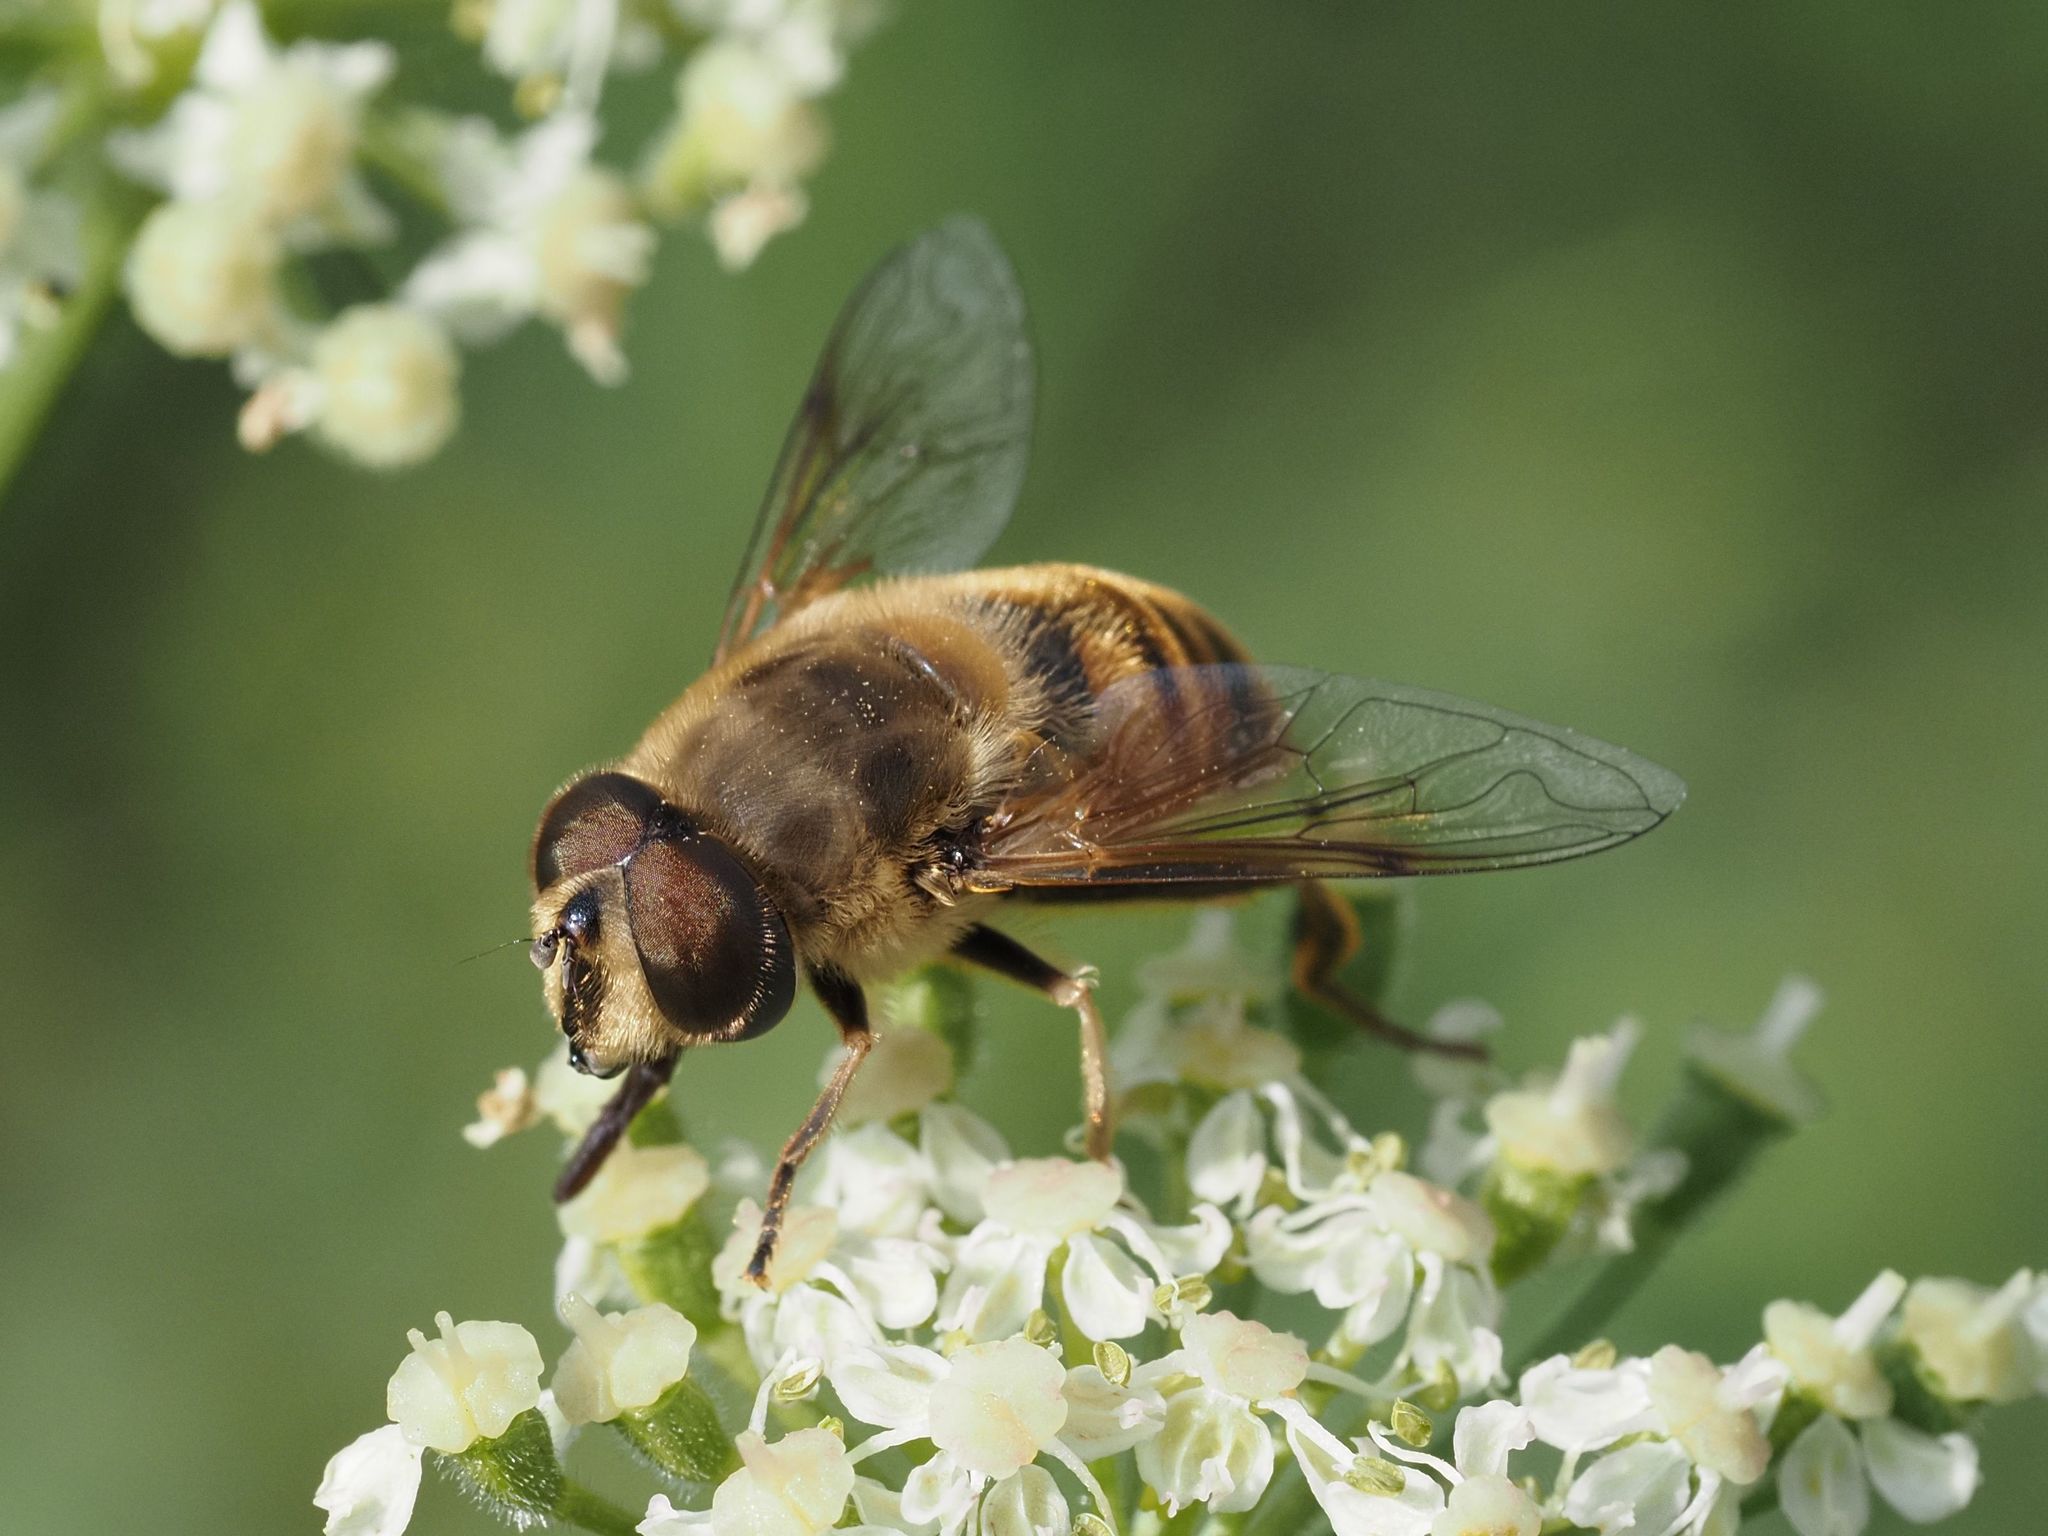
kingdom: Animalia
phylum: Arthropoda
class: Insecta
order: Diptera
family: Syrphidae
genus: Eristalis
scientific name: Eristalis tenax
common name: Drone fly
